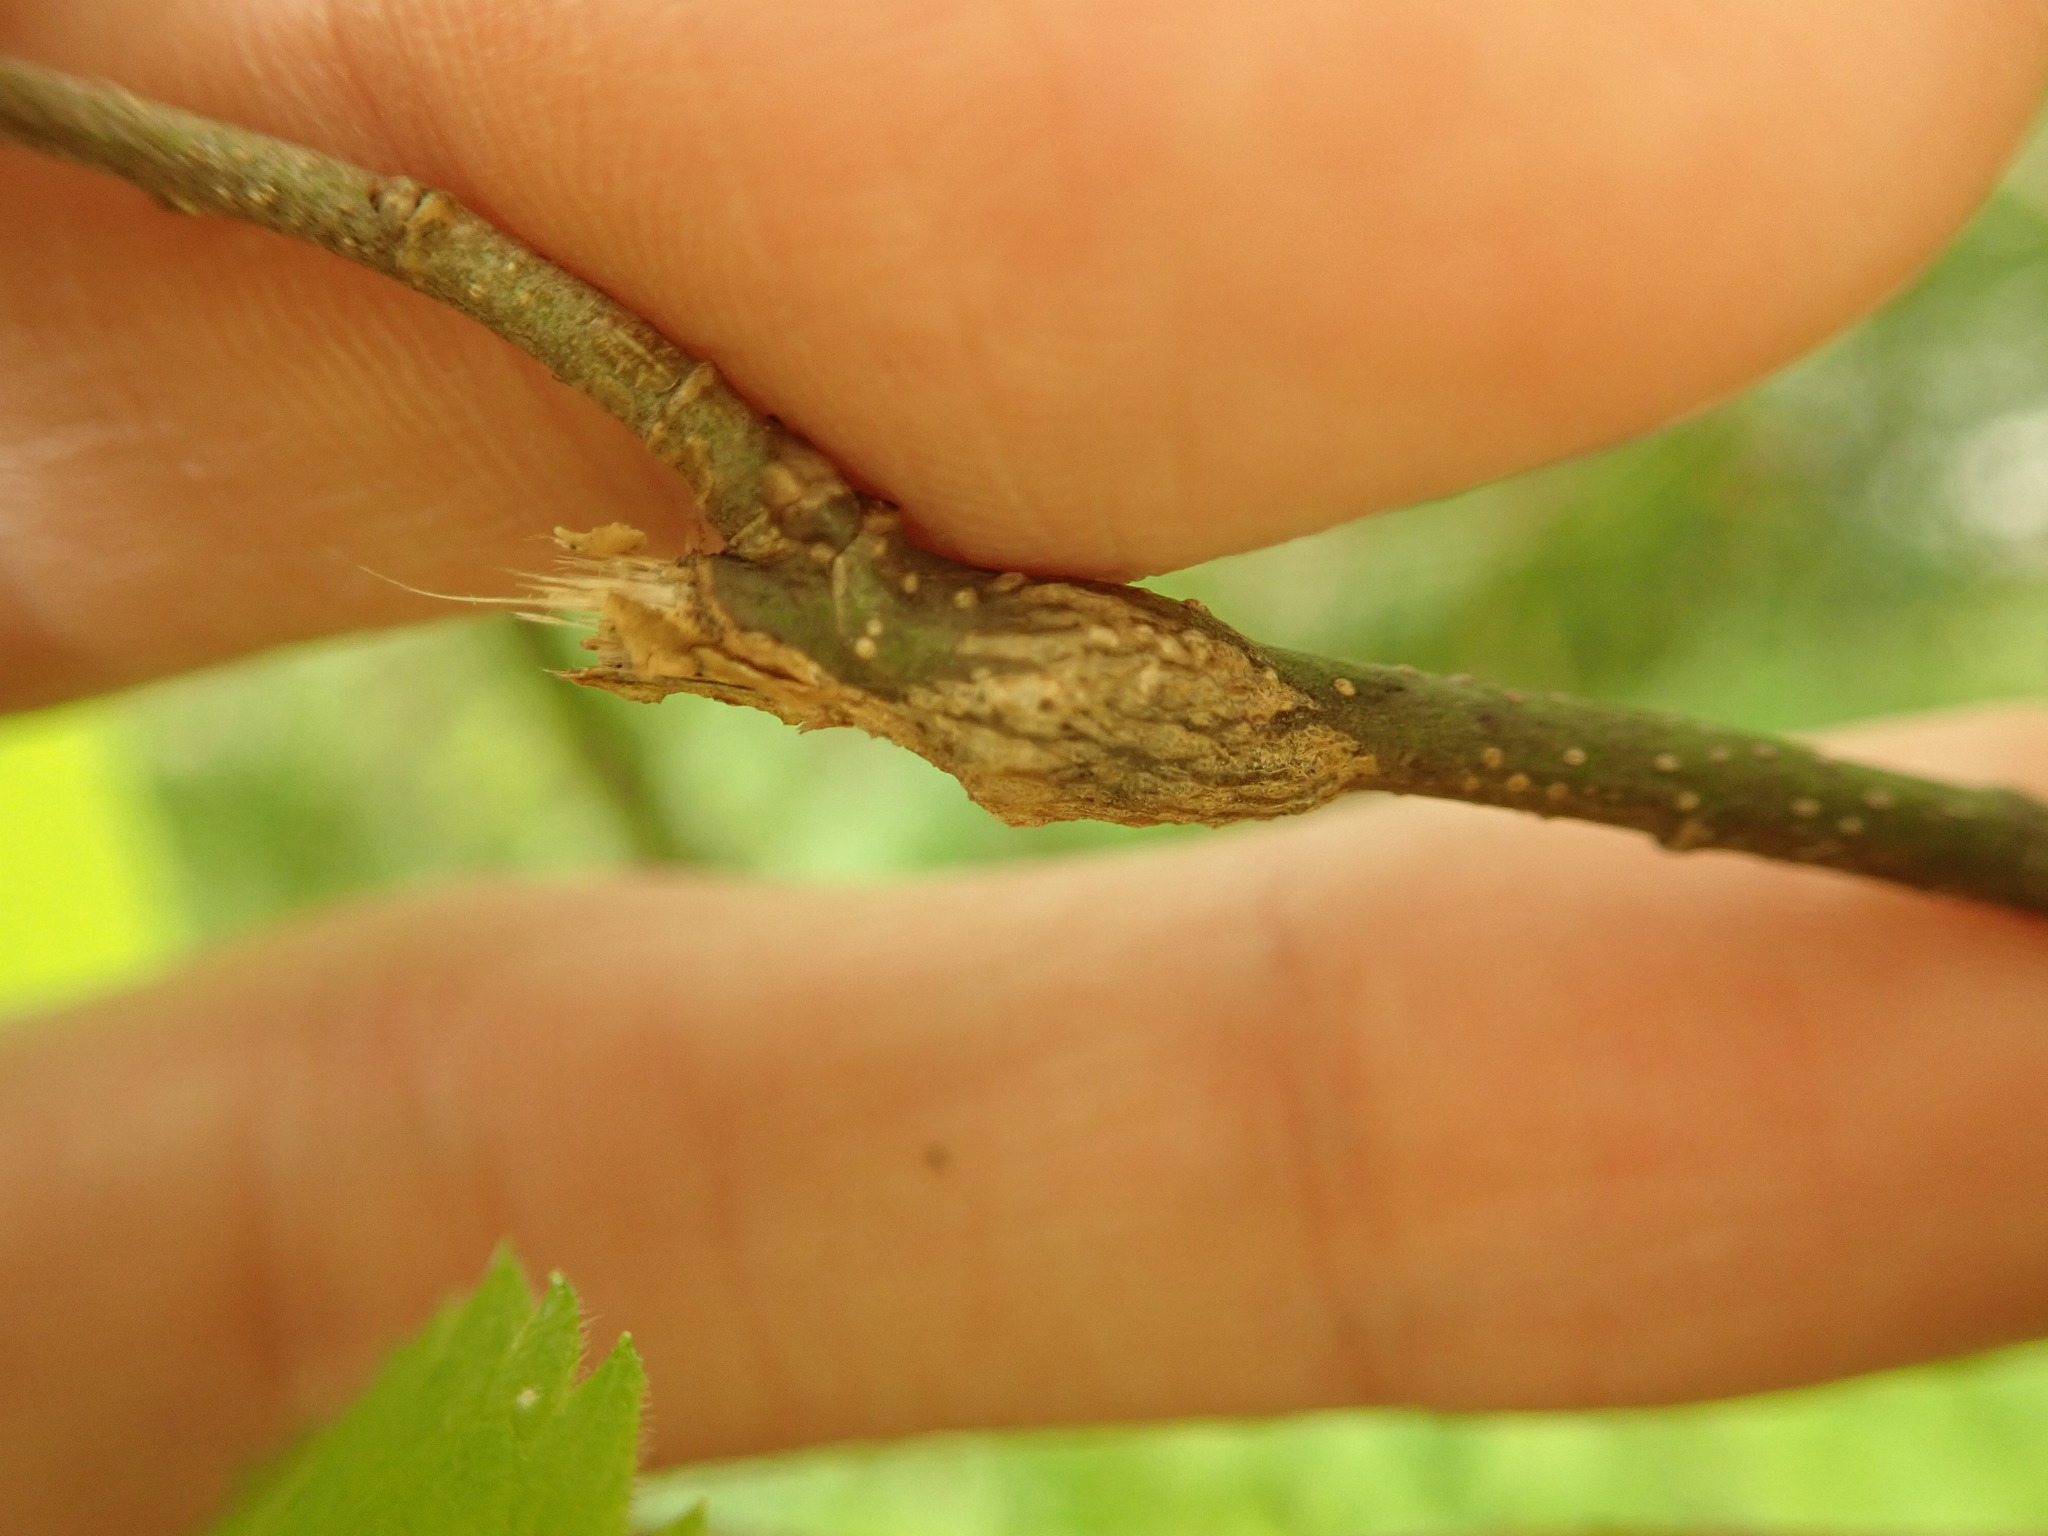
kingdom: Animalia
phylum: Arthropoda
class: Insecta
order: Hemiptera
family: Aphalaridae
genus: Pachypsylla
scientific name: Pachypsylla celtidisinteneris
